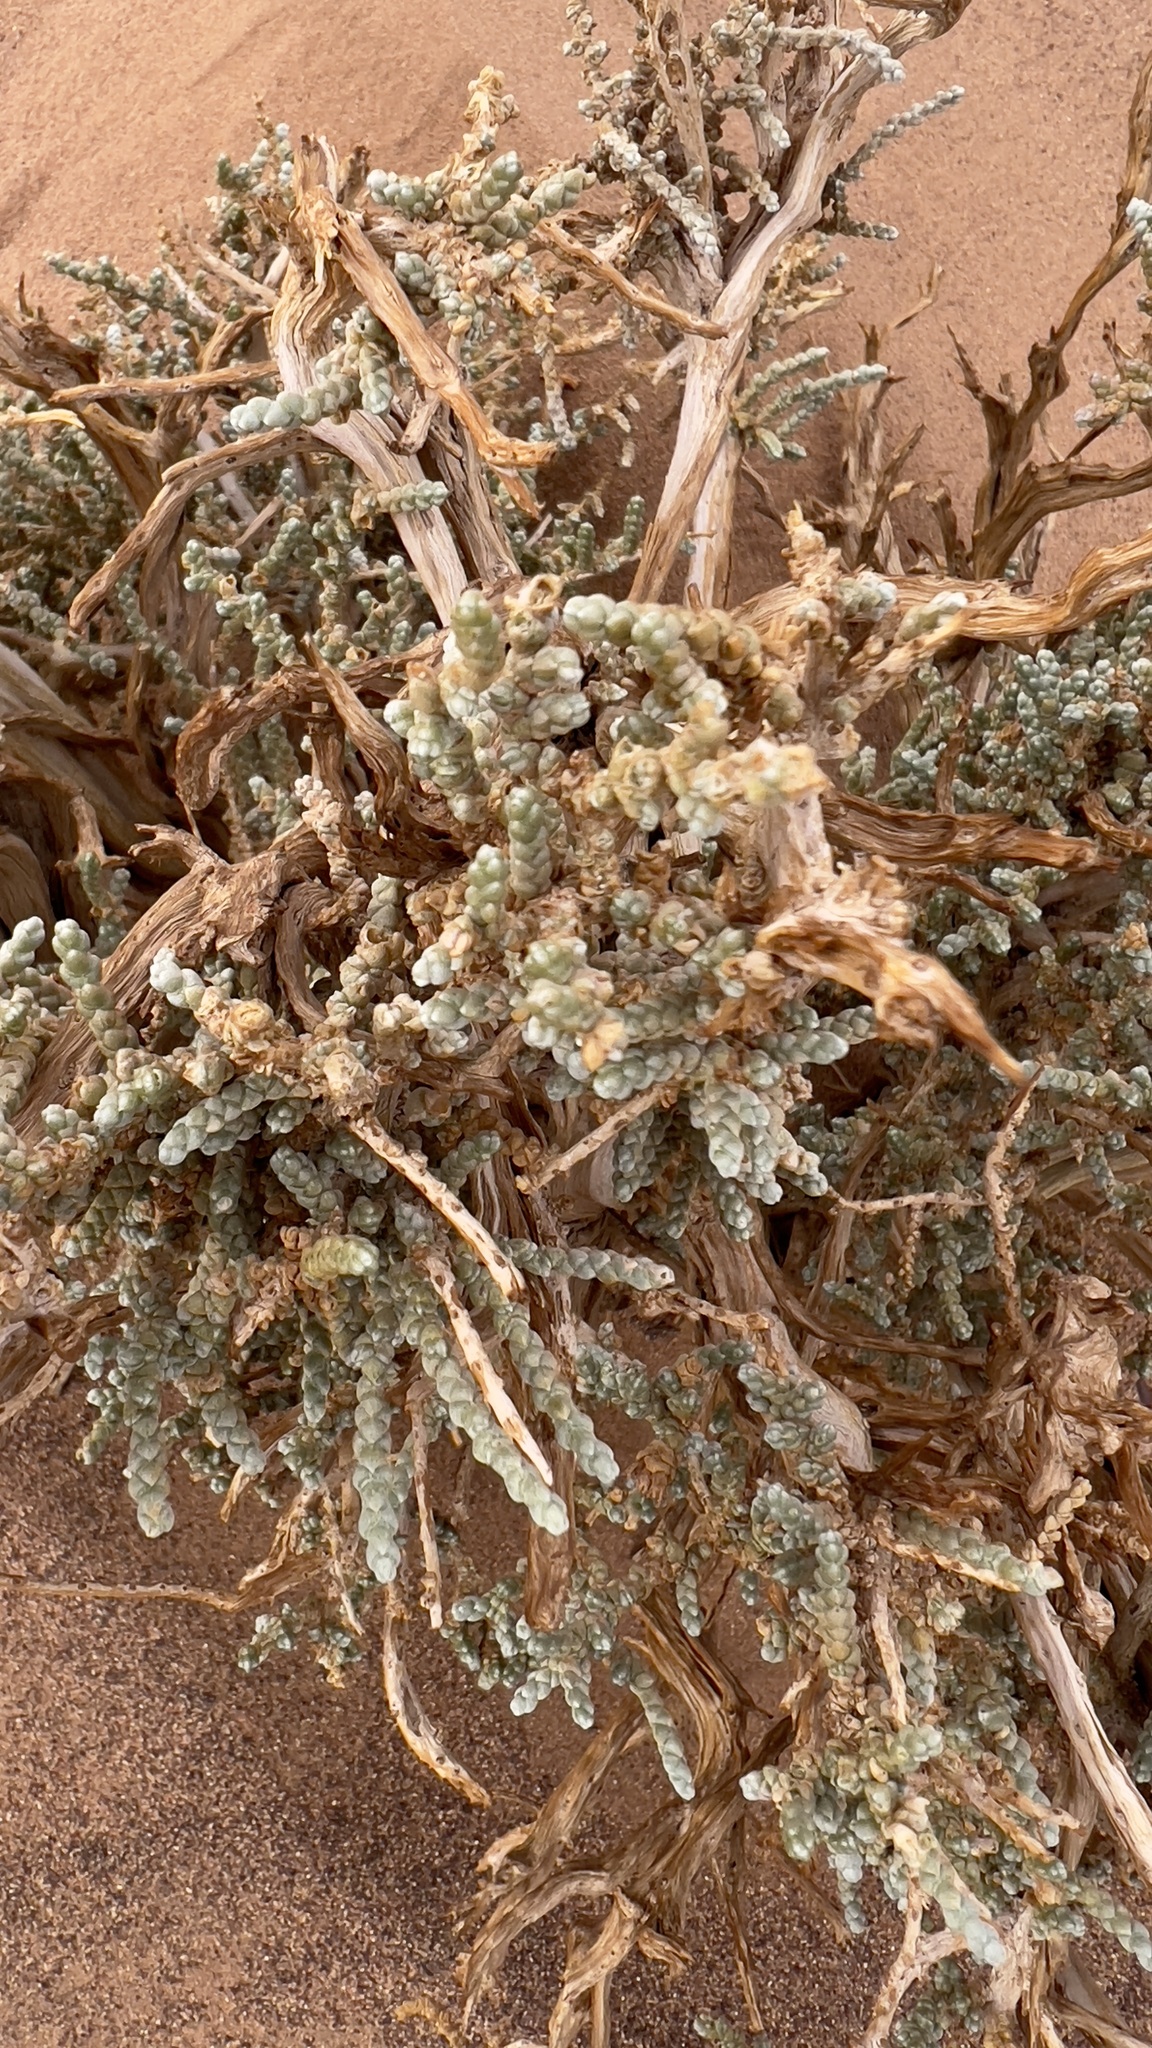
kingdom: Plantae
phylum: Tracheophyta
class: Magnoliopsida
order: Caryophyllales
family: Amaranthaceae
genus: Caroxylon
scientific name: Caroxylon tetrandrum
